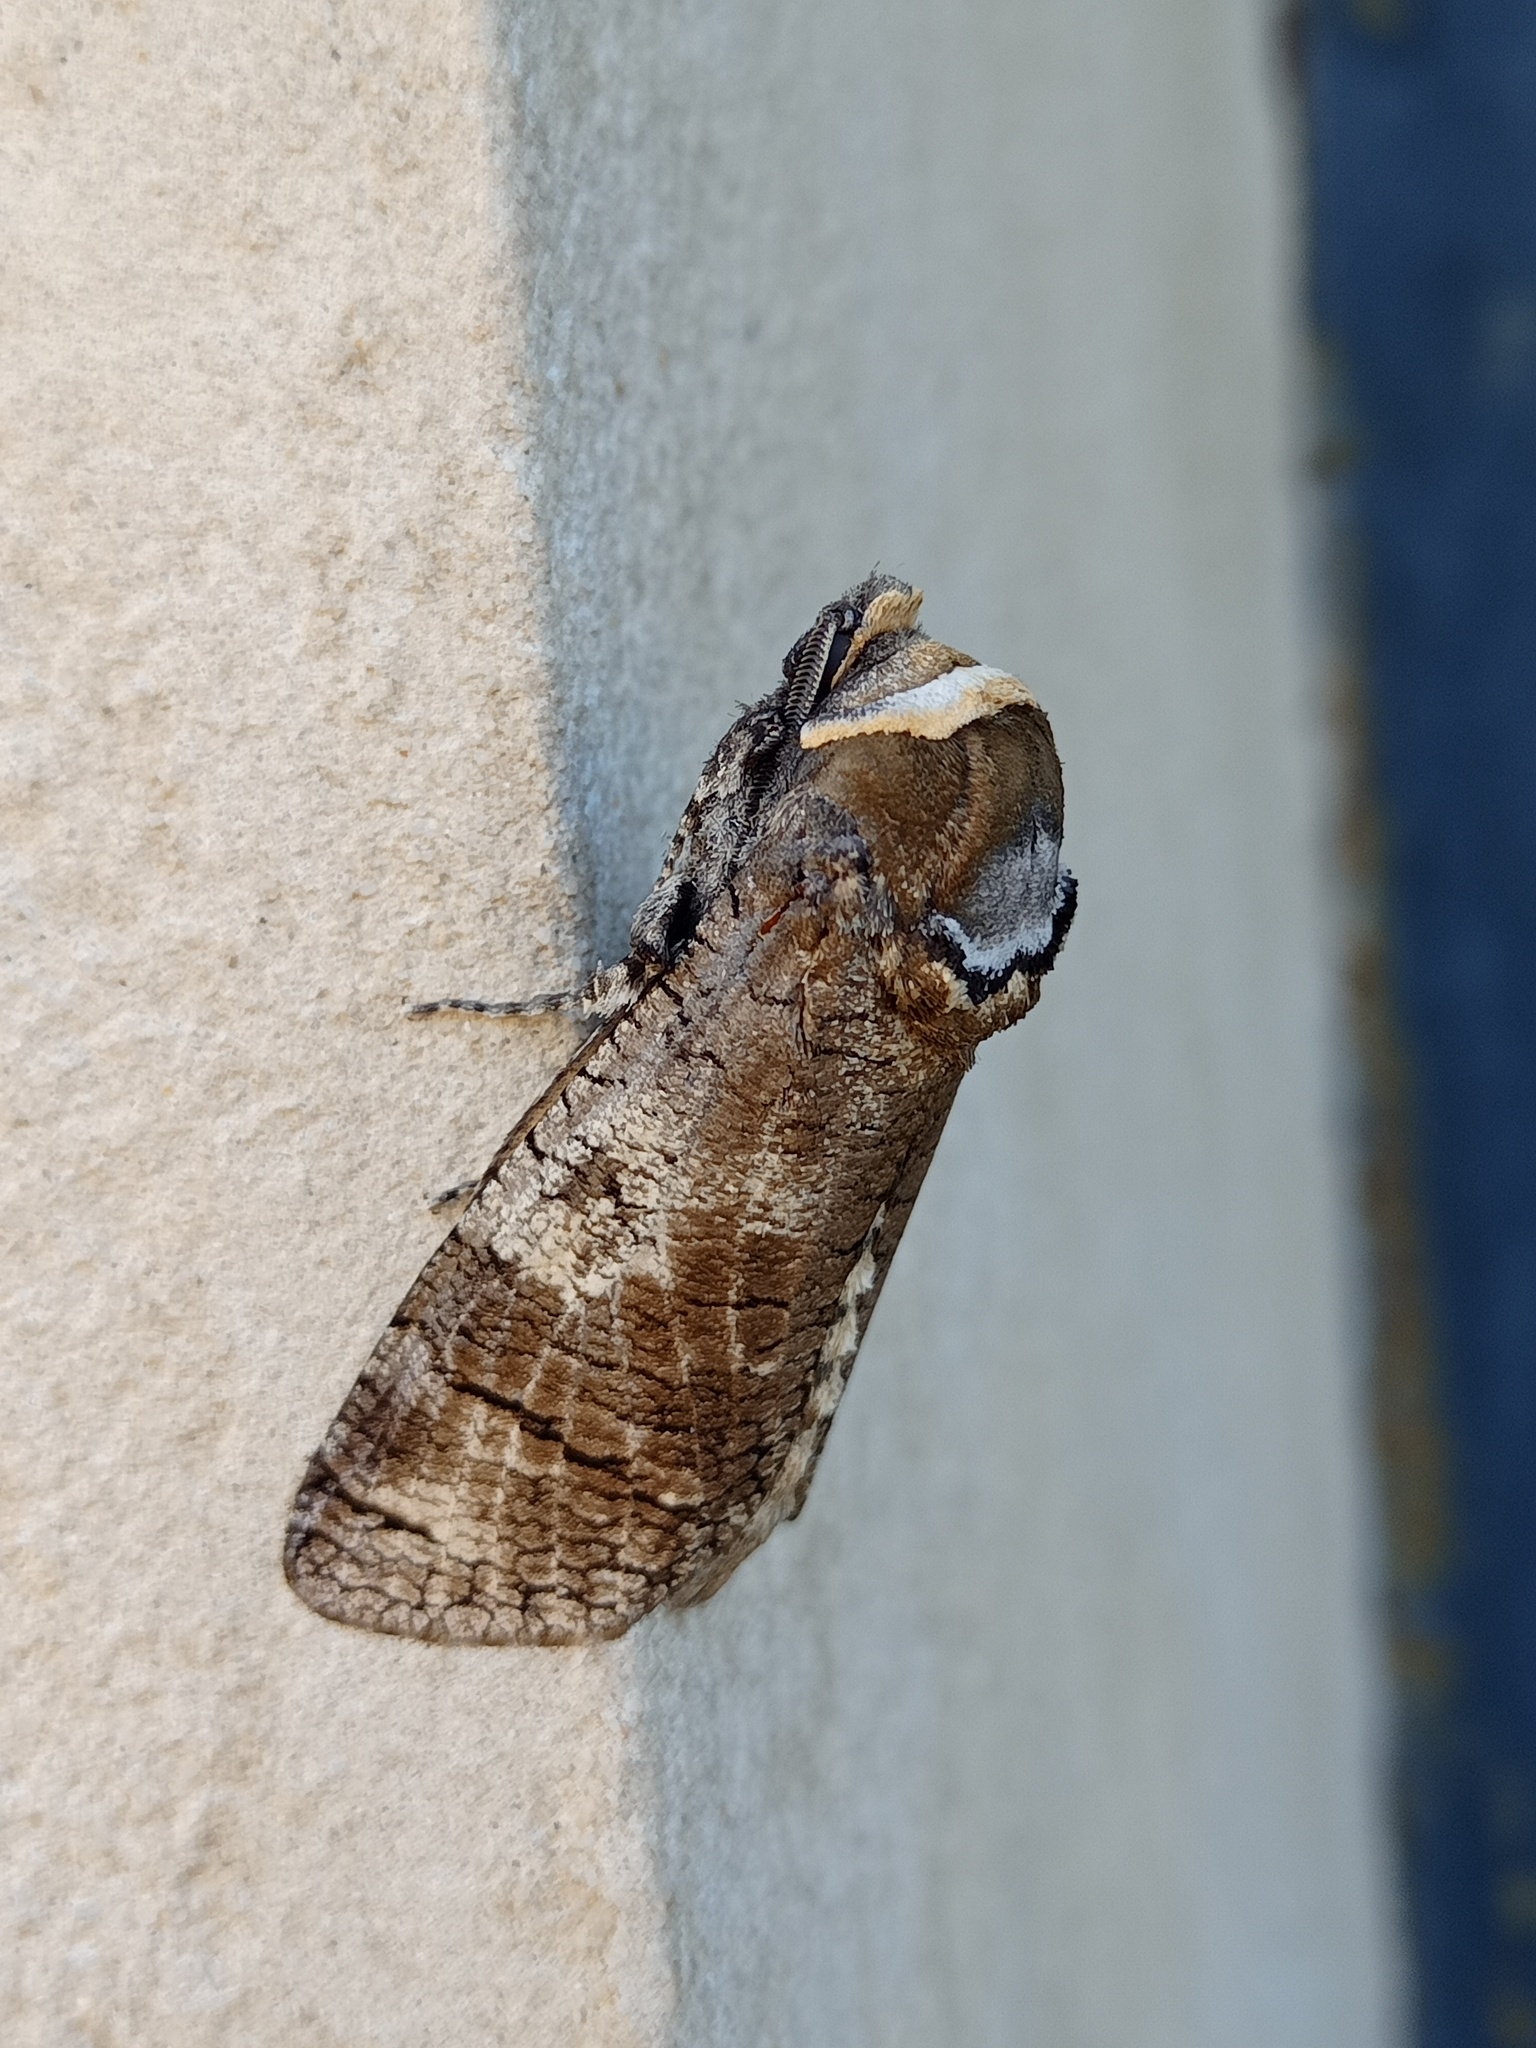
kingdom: Animalia
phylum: Arthropoda
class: Insecta
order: Lepidoptera
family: Cossidae
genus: Cossus
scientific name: Cossus cossus
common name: Goat moth
